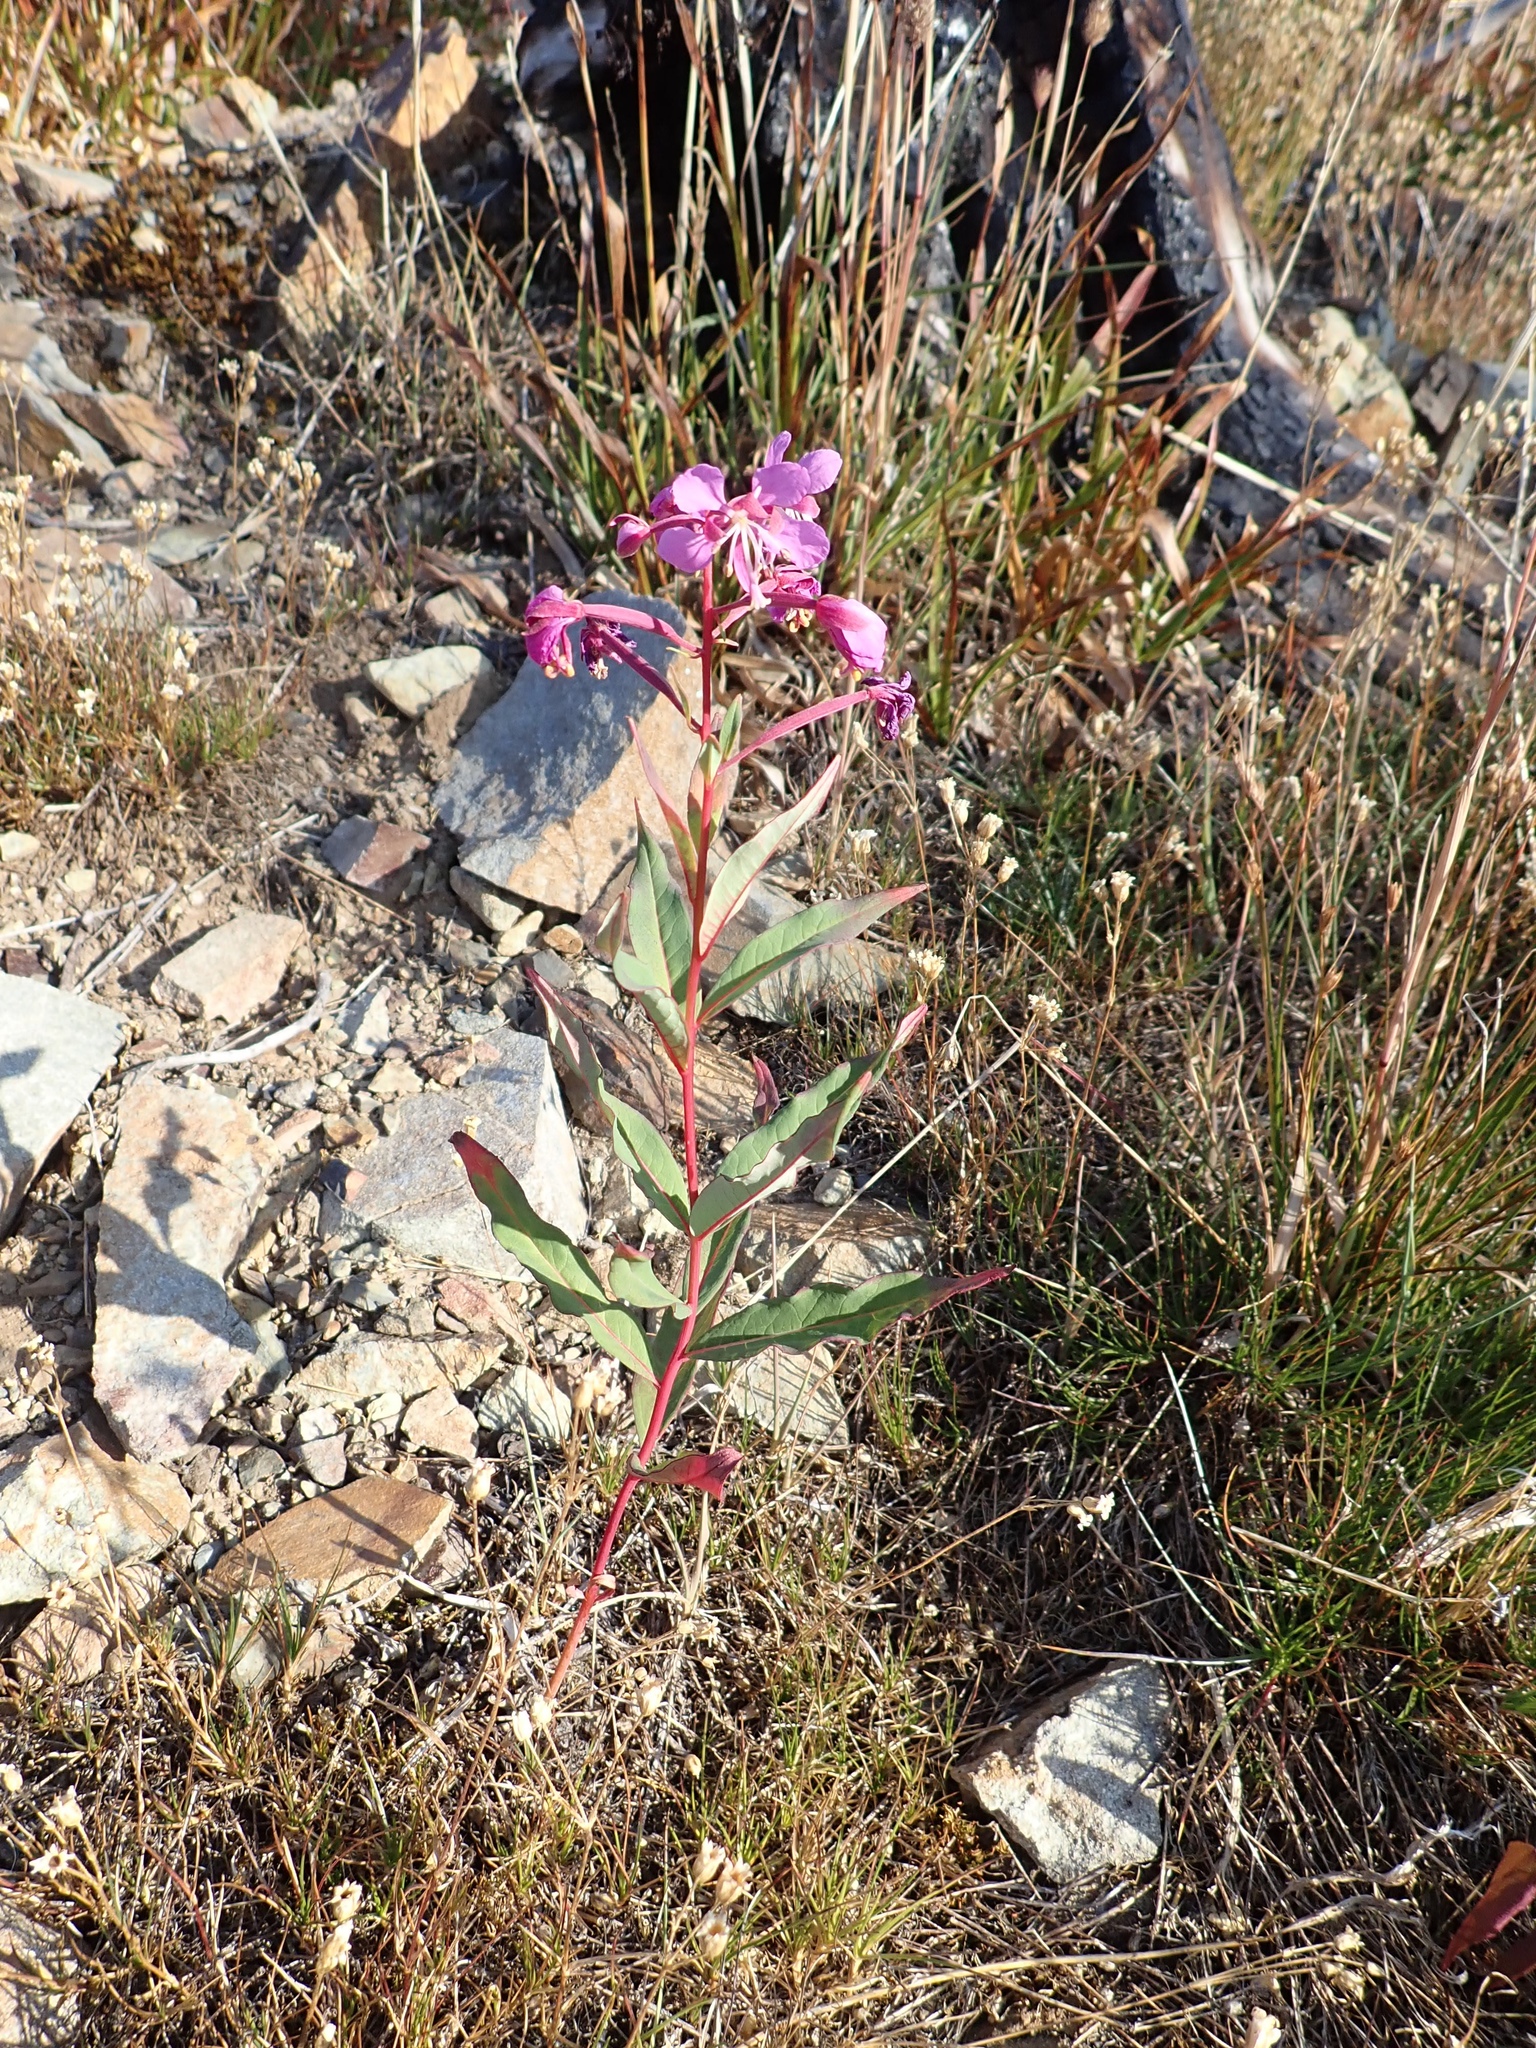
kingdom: Plantae
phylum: Tracheophyta
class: Magnoliopsida
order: Myrtales
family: Onagraceae
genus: Chamaenerion
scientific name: Chamaenerion angustifolium
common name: Fireweed
